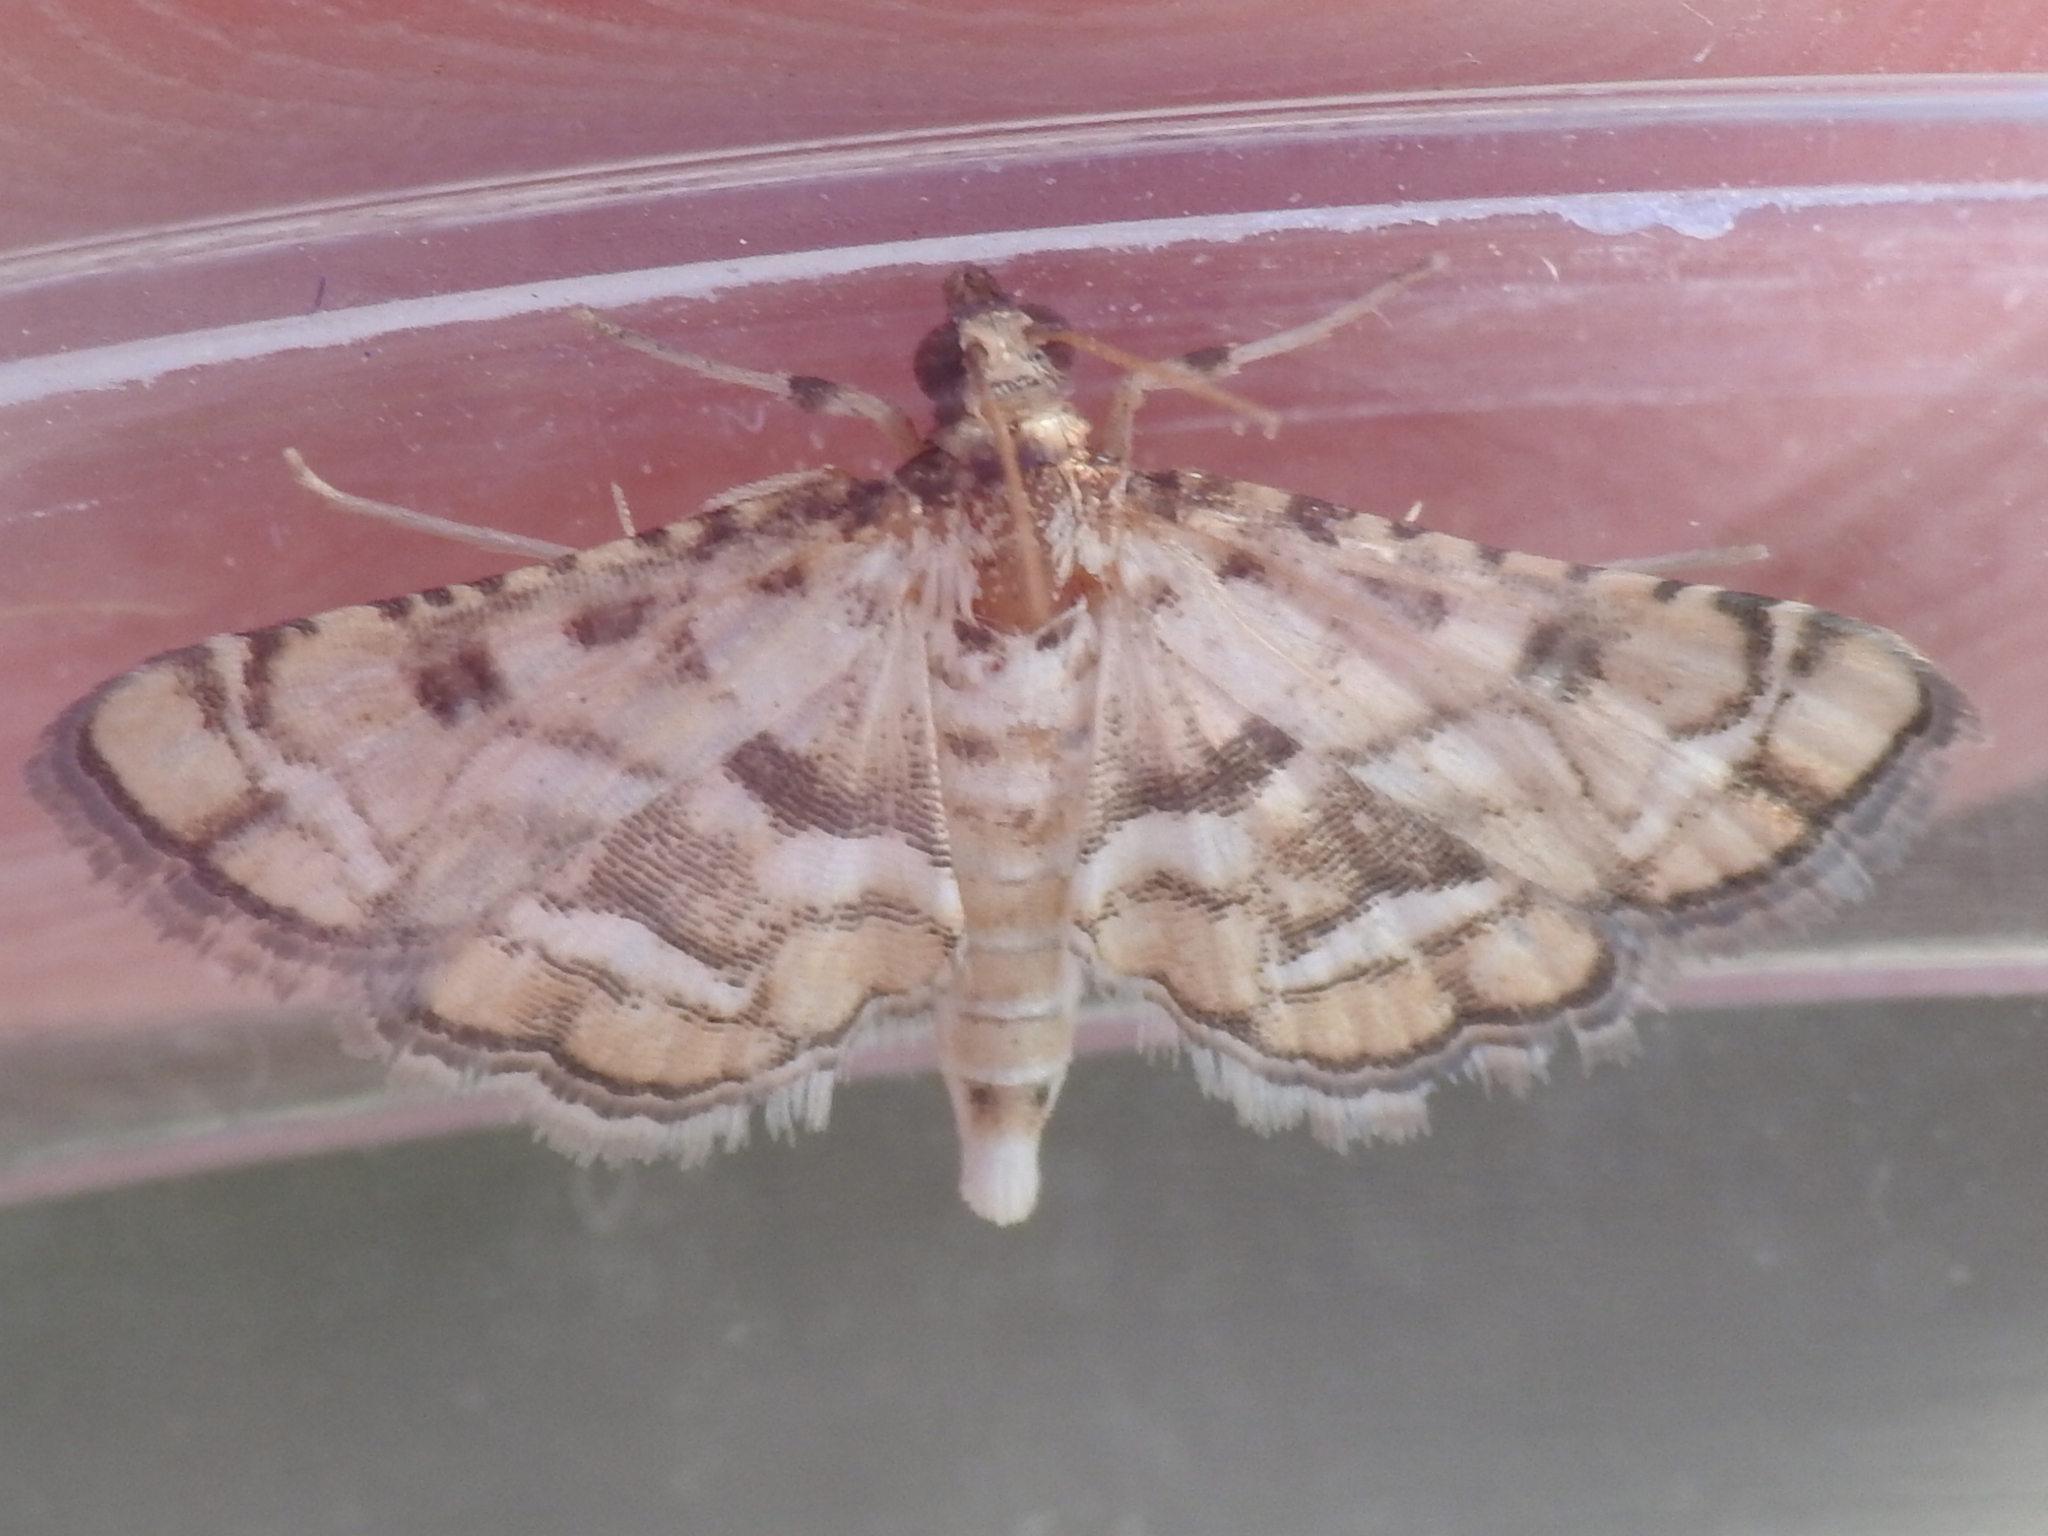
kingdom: Animalia
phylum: Arthropoda
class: Insecta
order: Lepidoptera
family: Crambidae
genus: Hileithia
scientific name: Hileithia magualis
